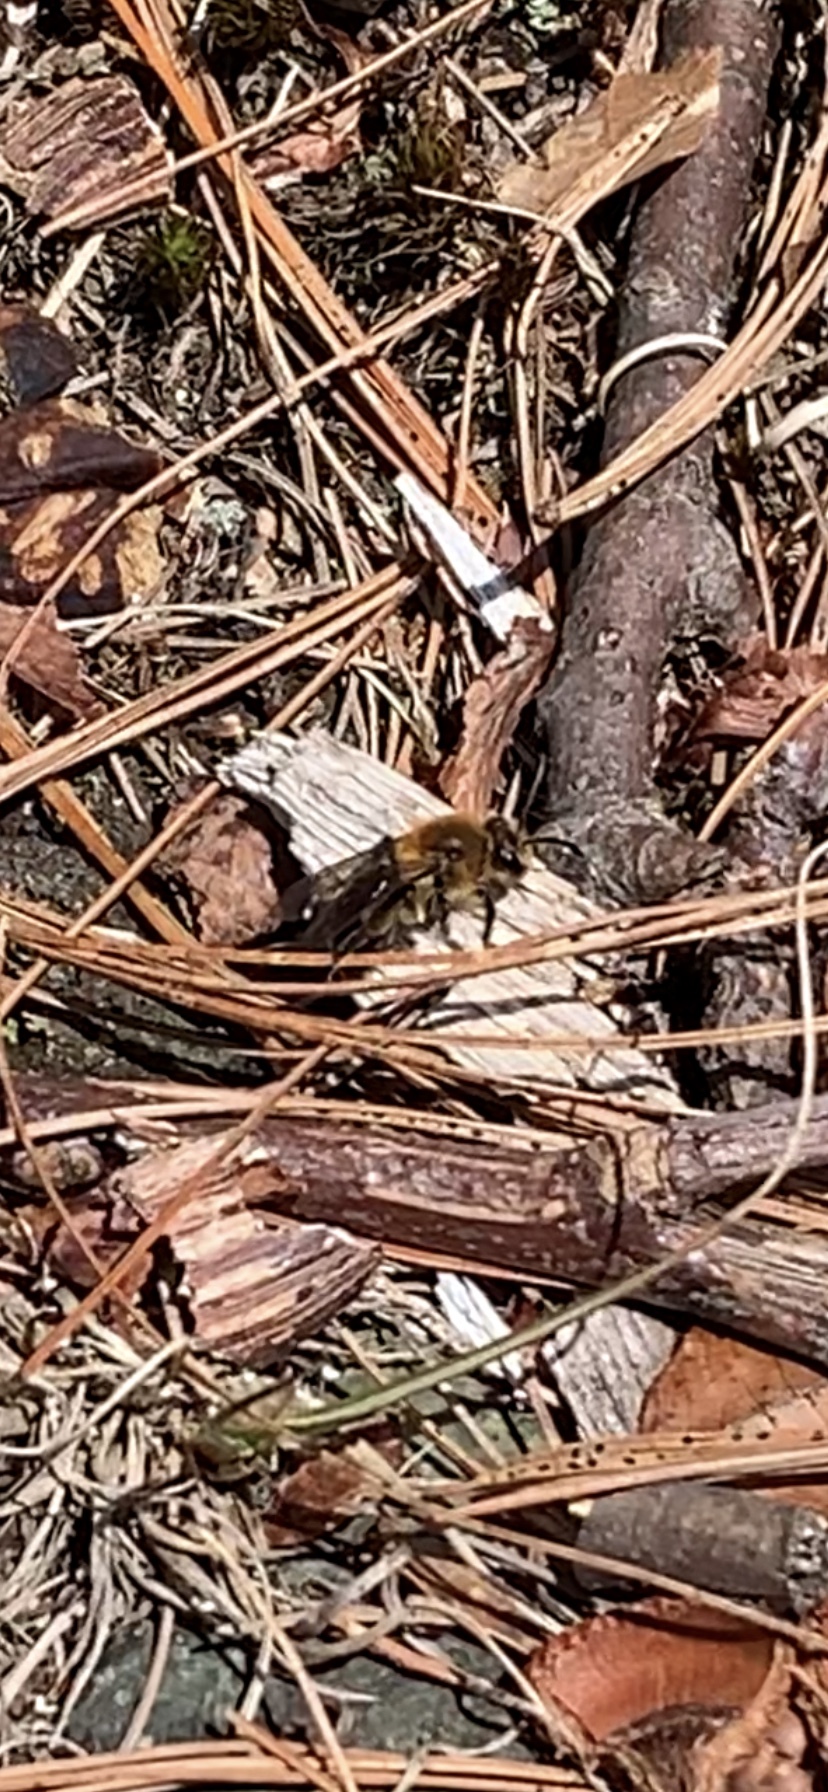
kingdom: Animalia
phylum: Arthropoda
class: Insecta
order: Hymenoptera
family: Andrenidae
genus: Andrena
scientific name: Andrena dunningi
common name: Dunning's miner
